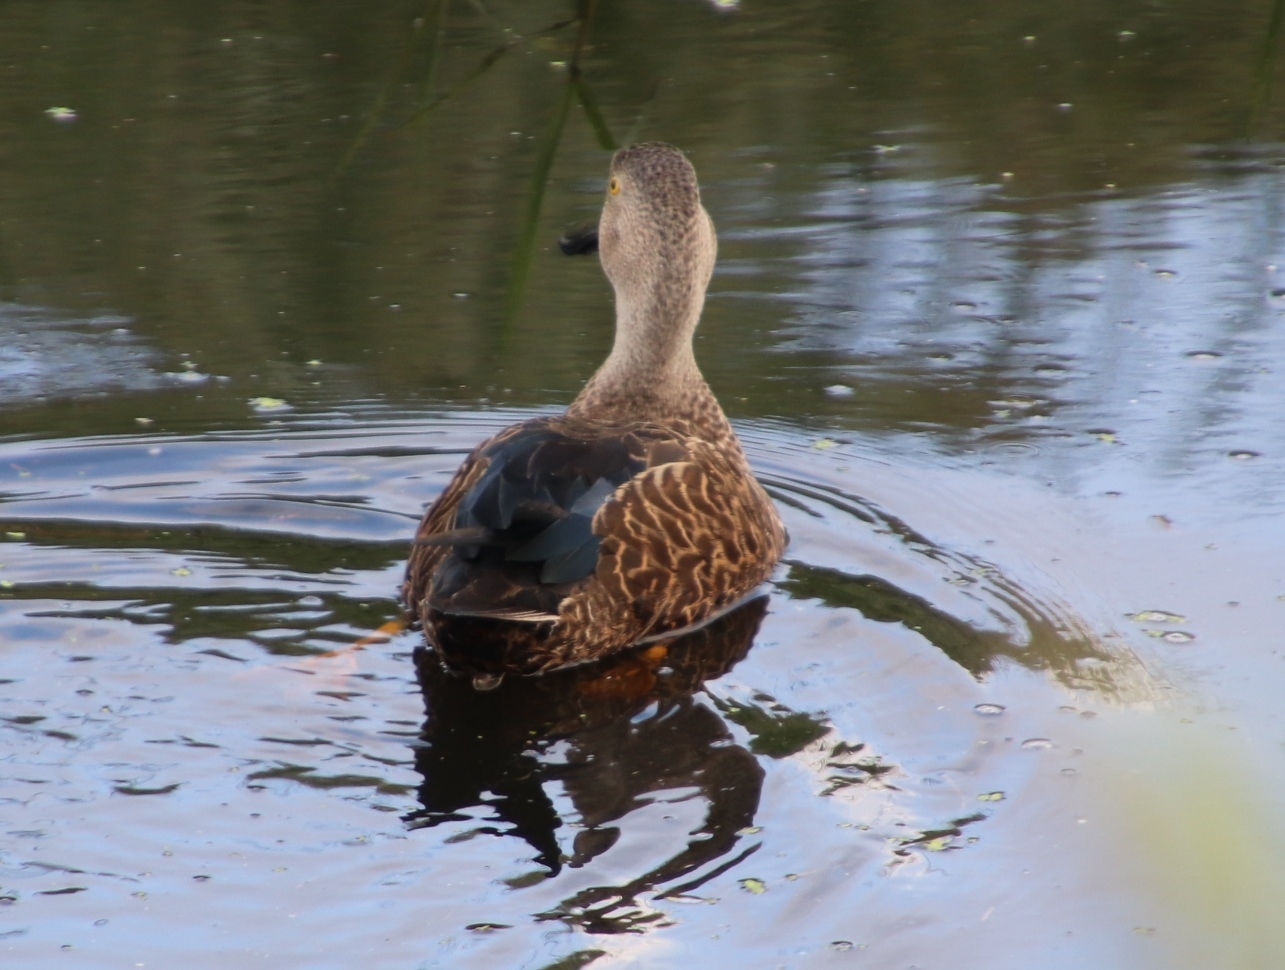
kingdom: Animalia
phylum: Chordata
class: Aves
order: Anseriformes
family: Anatidae
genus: Spatula
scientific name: Spatula smithii
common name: Cape shoveler
